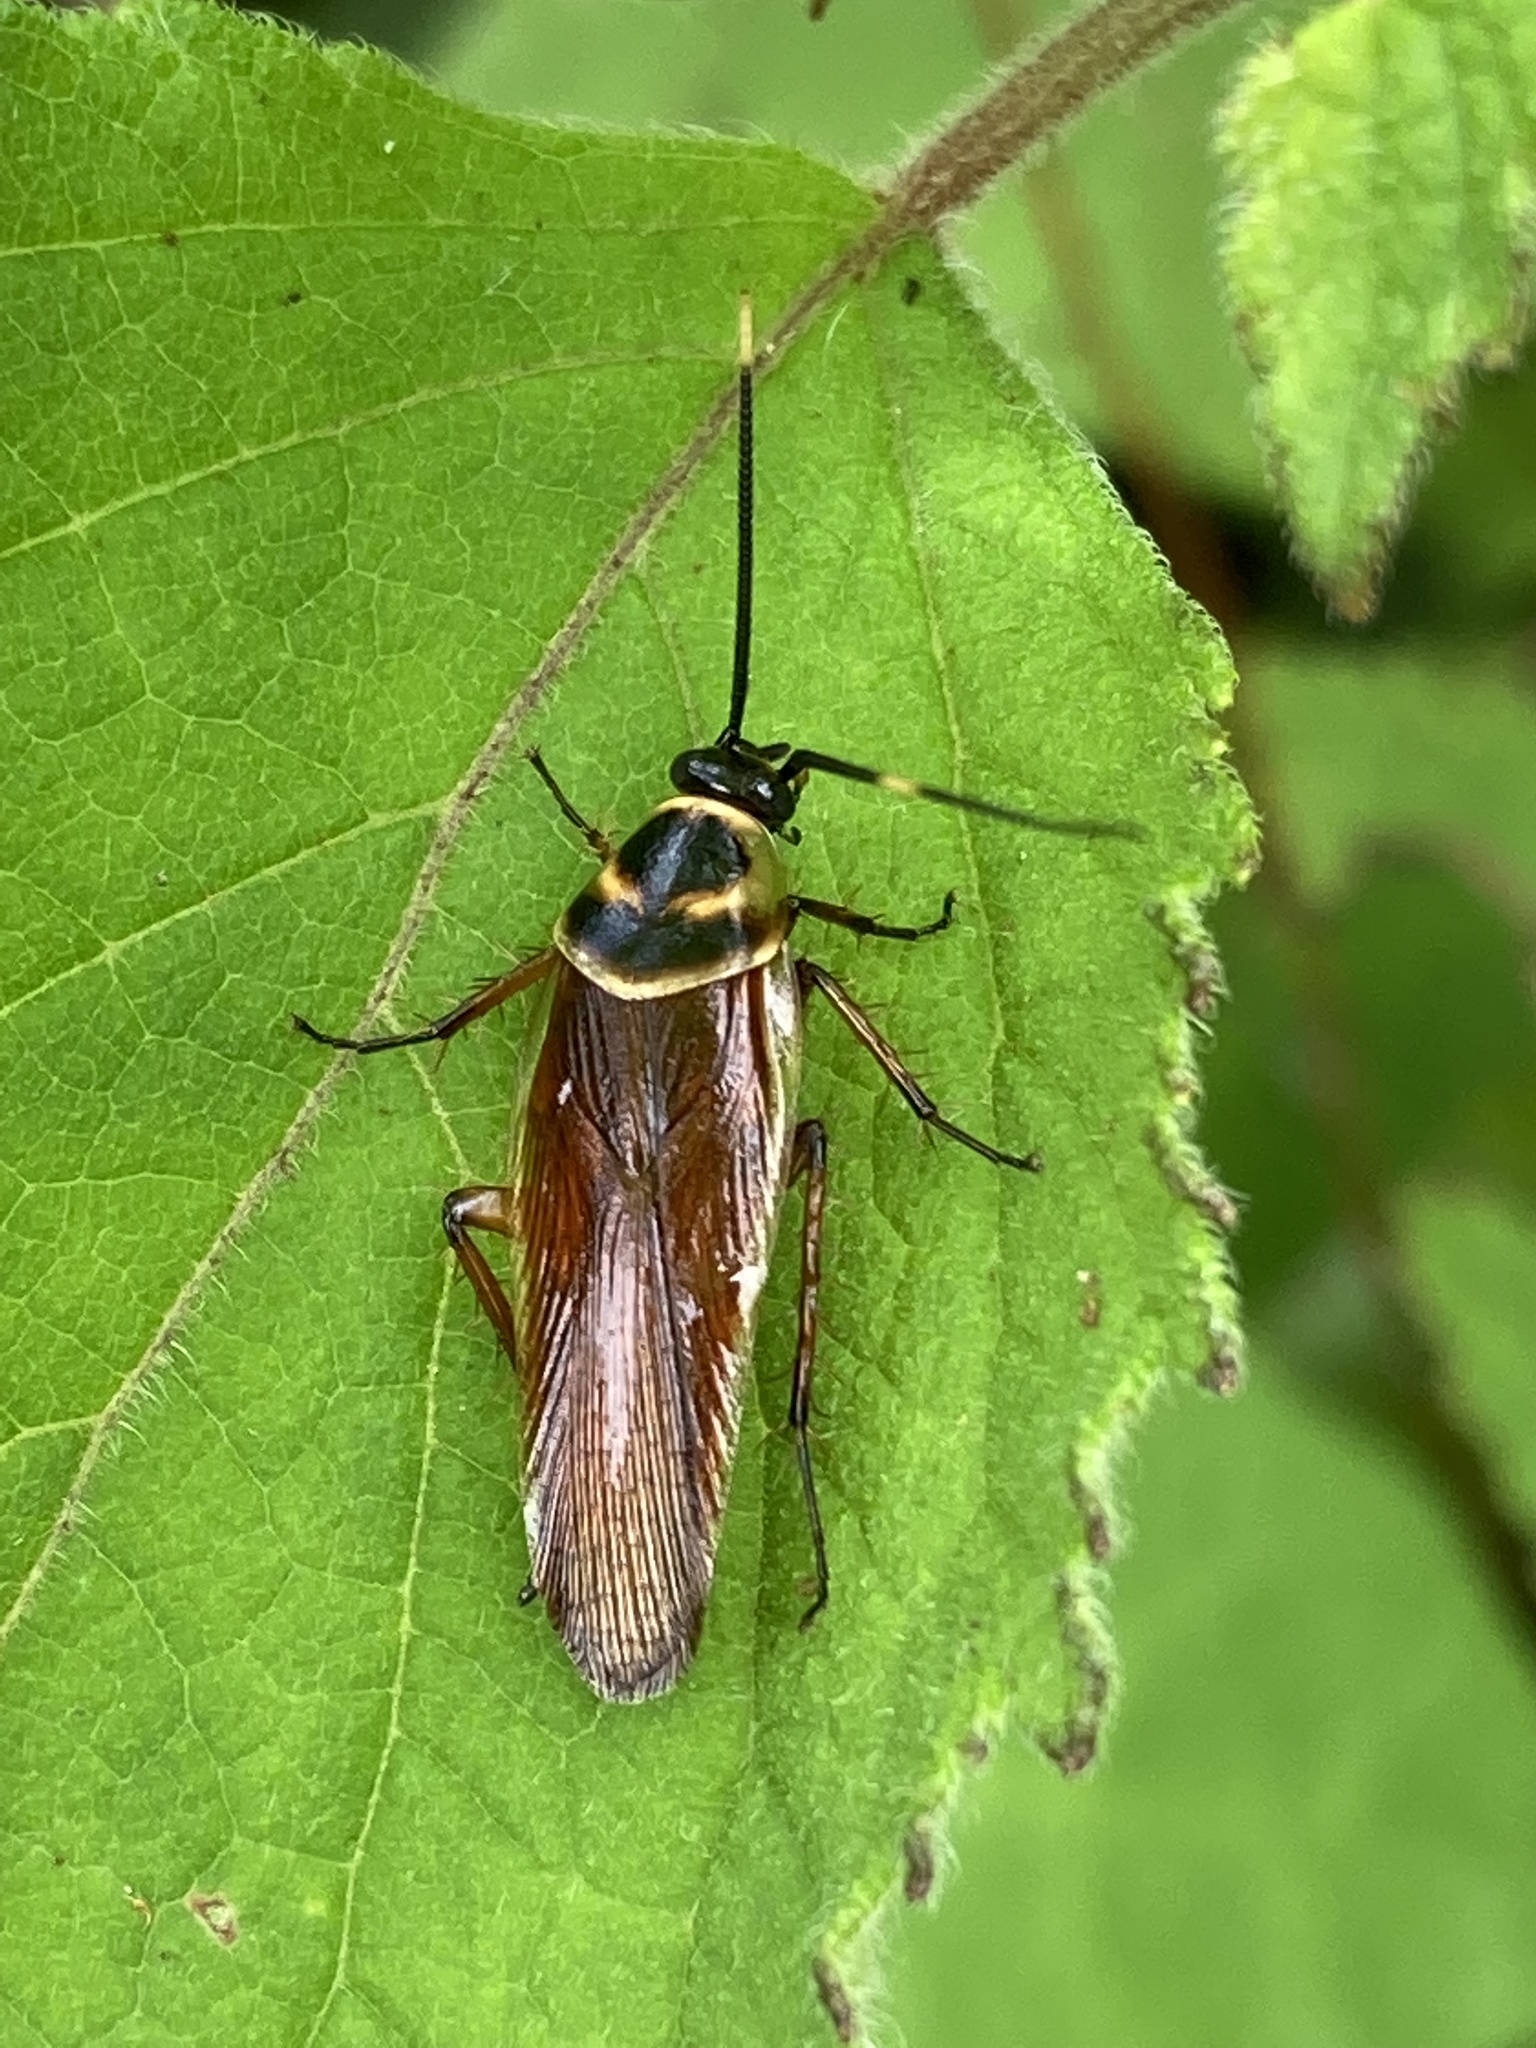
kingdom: Animalia
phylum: Arthropoda
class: Insecta
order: Blattodea
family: Ectobiidae
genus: Pseudomops
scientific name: Pseudomops cinctus
